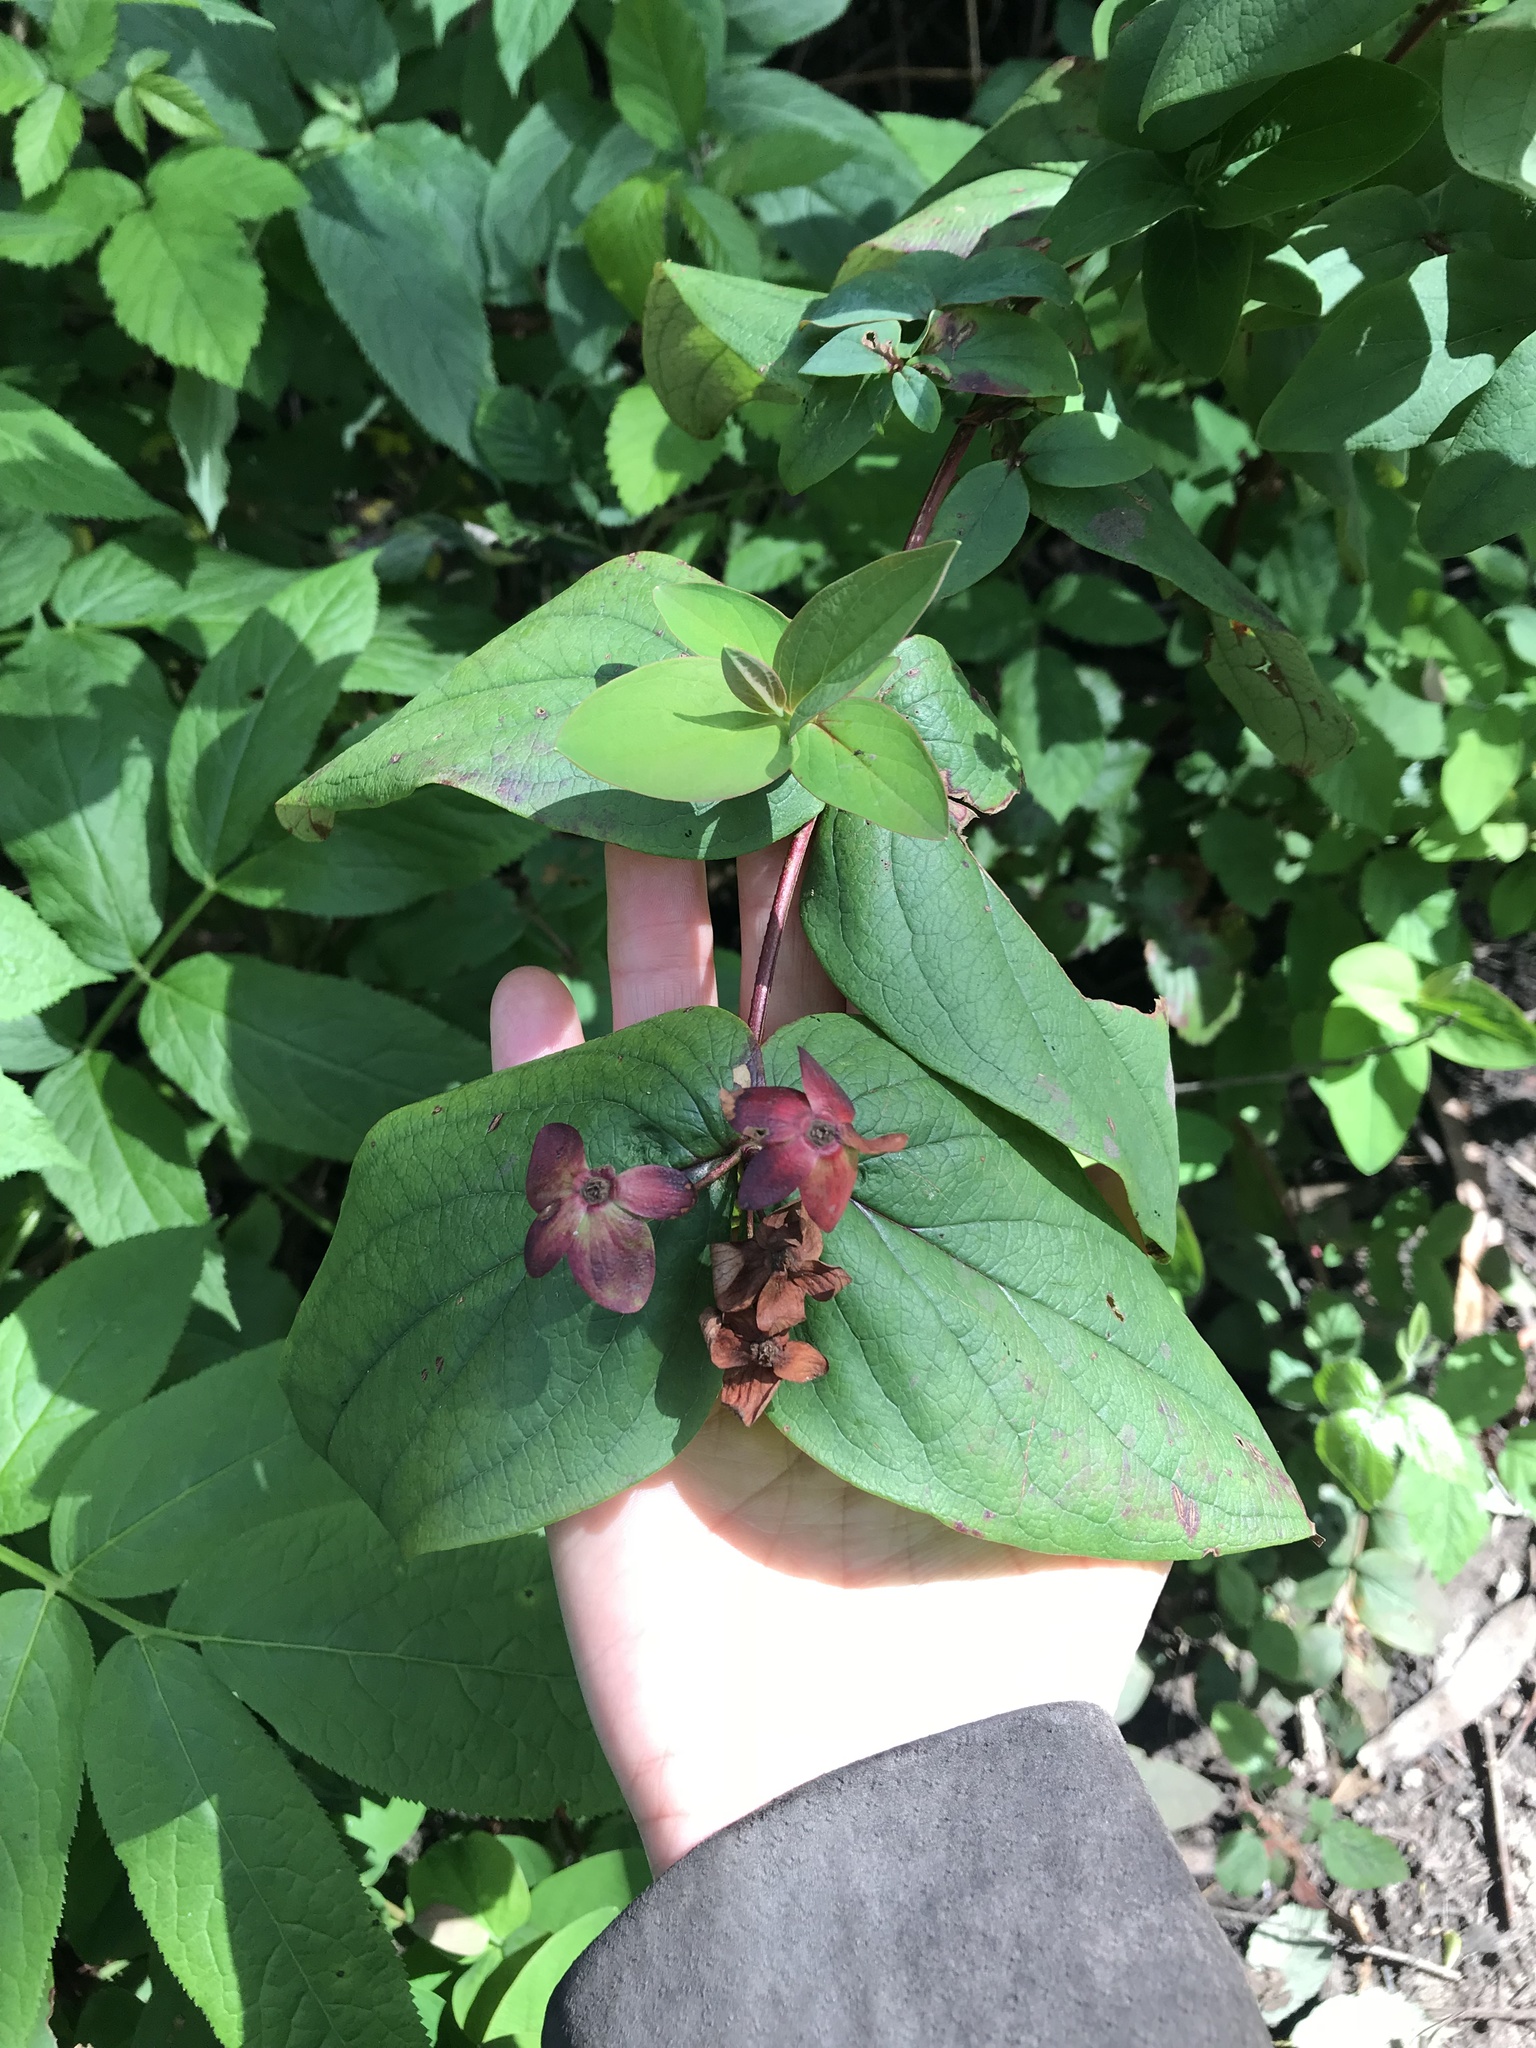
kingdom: Plantae
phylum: Tracheophyta
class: Magnoliopsida
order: Dipsacales
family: Caprifoliaceae
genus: Lonicera
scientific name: Lonicera involucrata
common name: Californian honeysuckle
